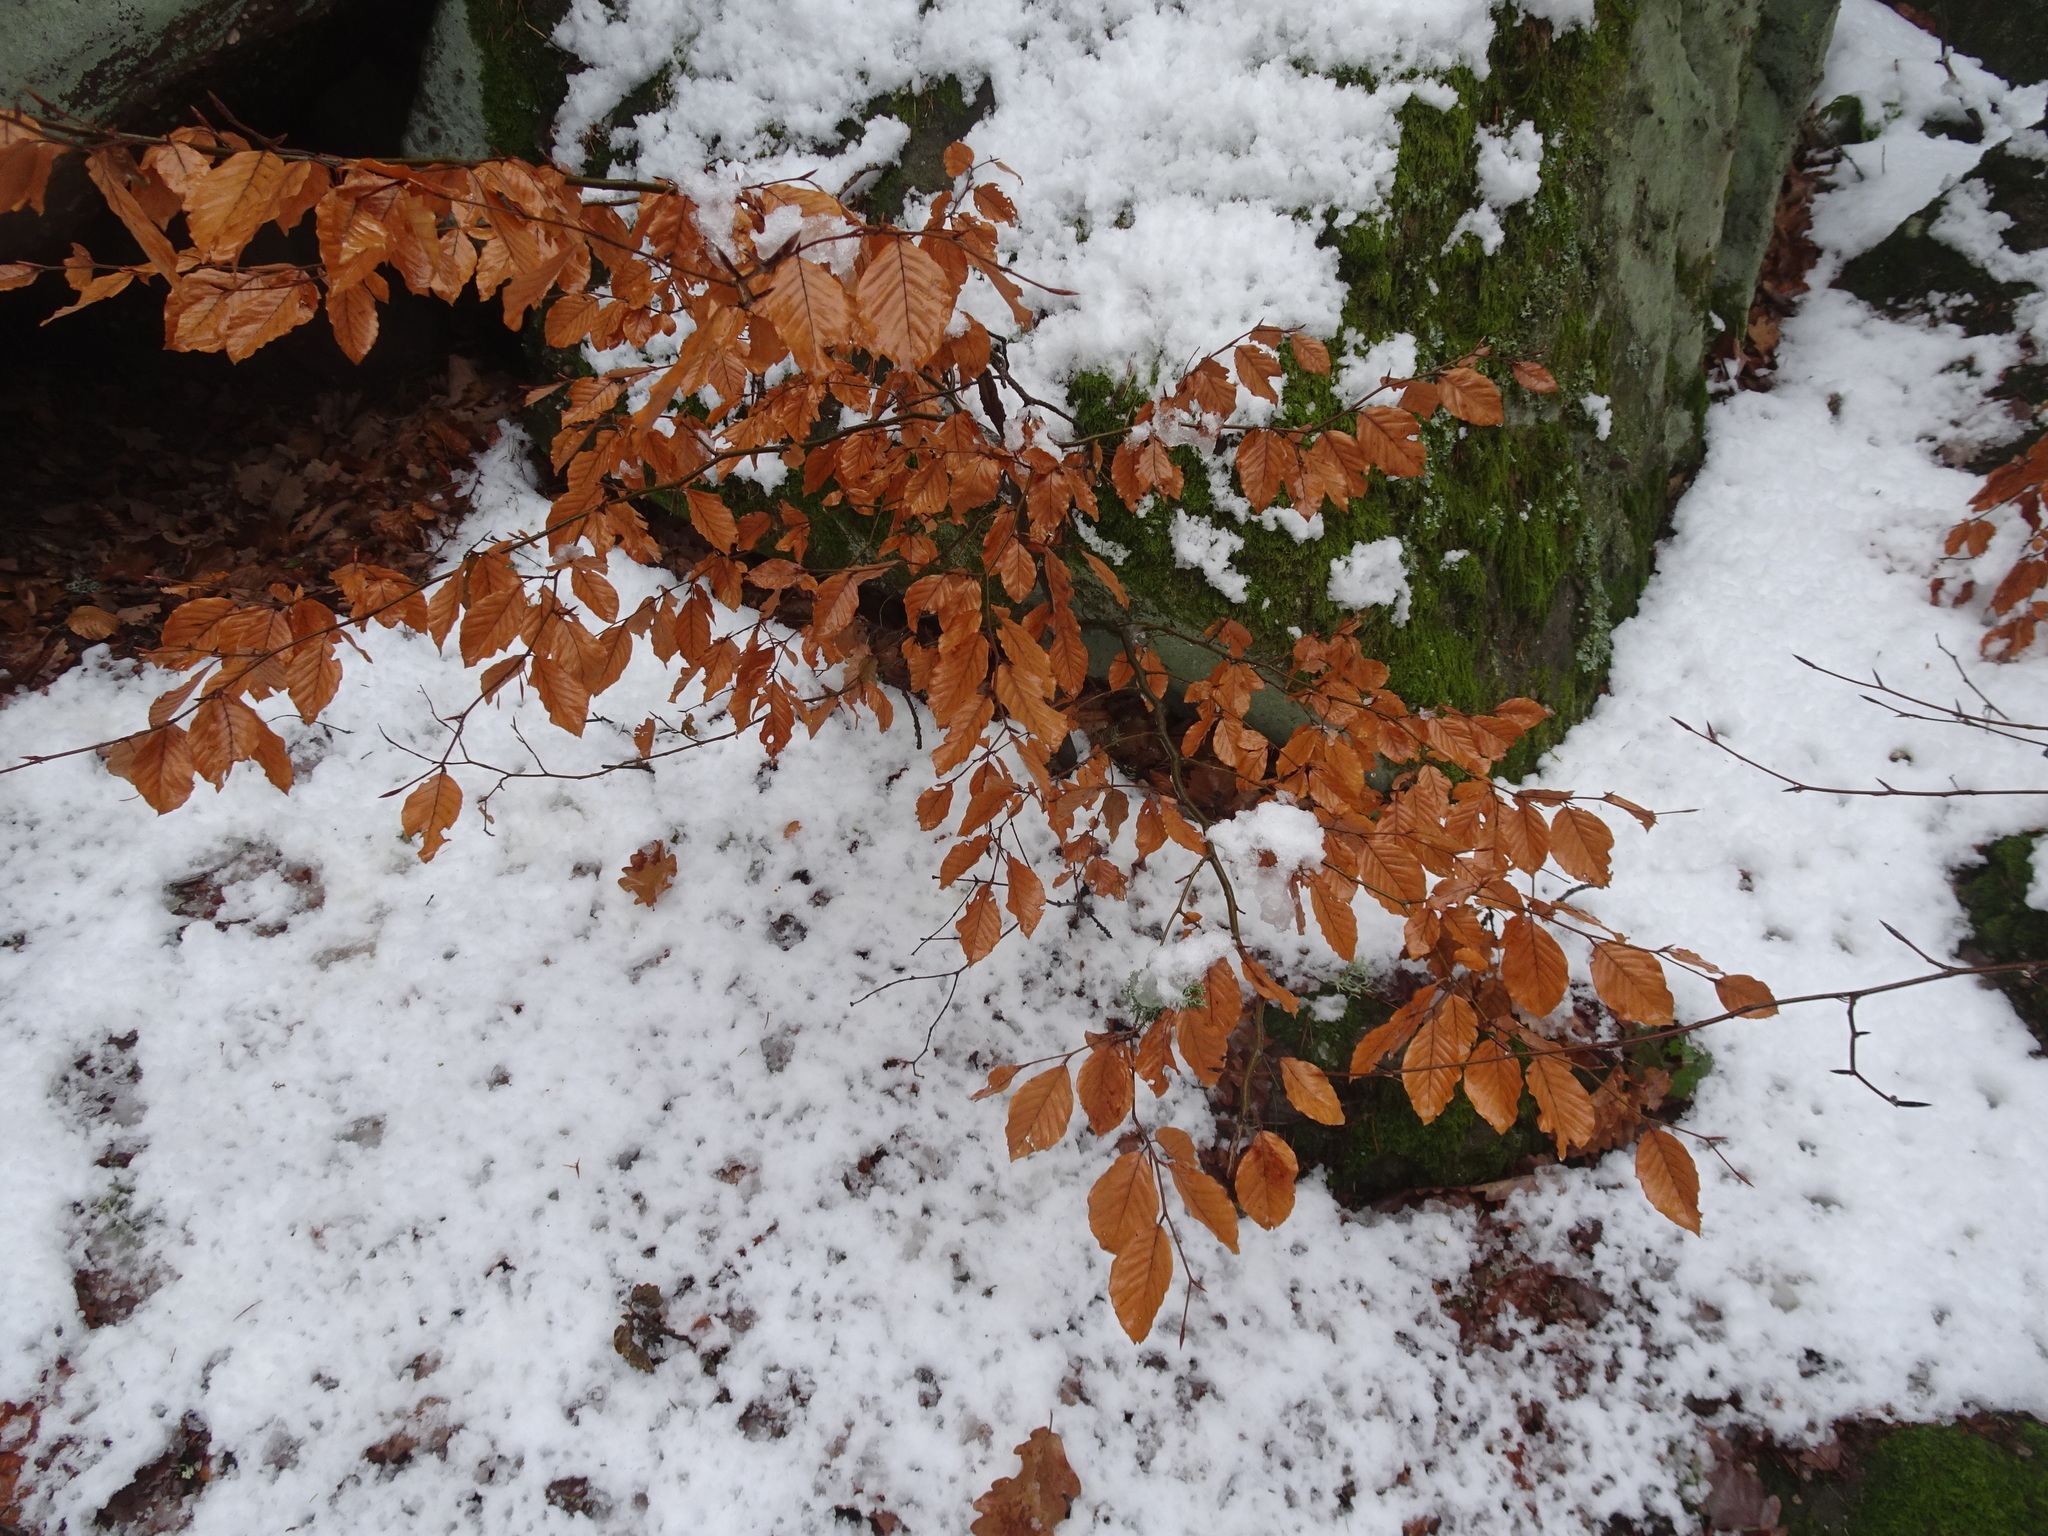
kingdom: Plantae
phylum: Tracheophyta
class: Magnoliopsida
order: Fagales
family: Fagaceae
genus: Fagus
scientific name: Fagus sylvatica
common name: Beech
